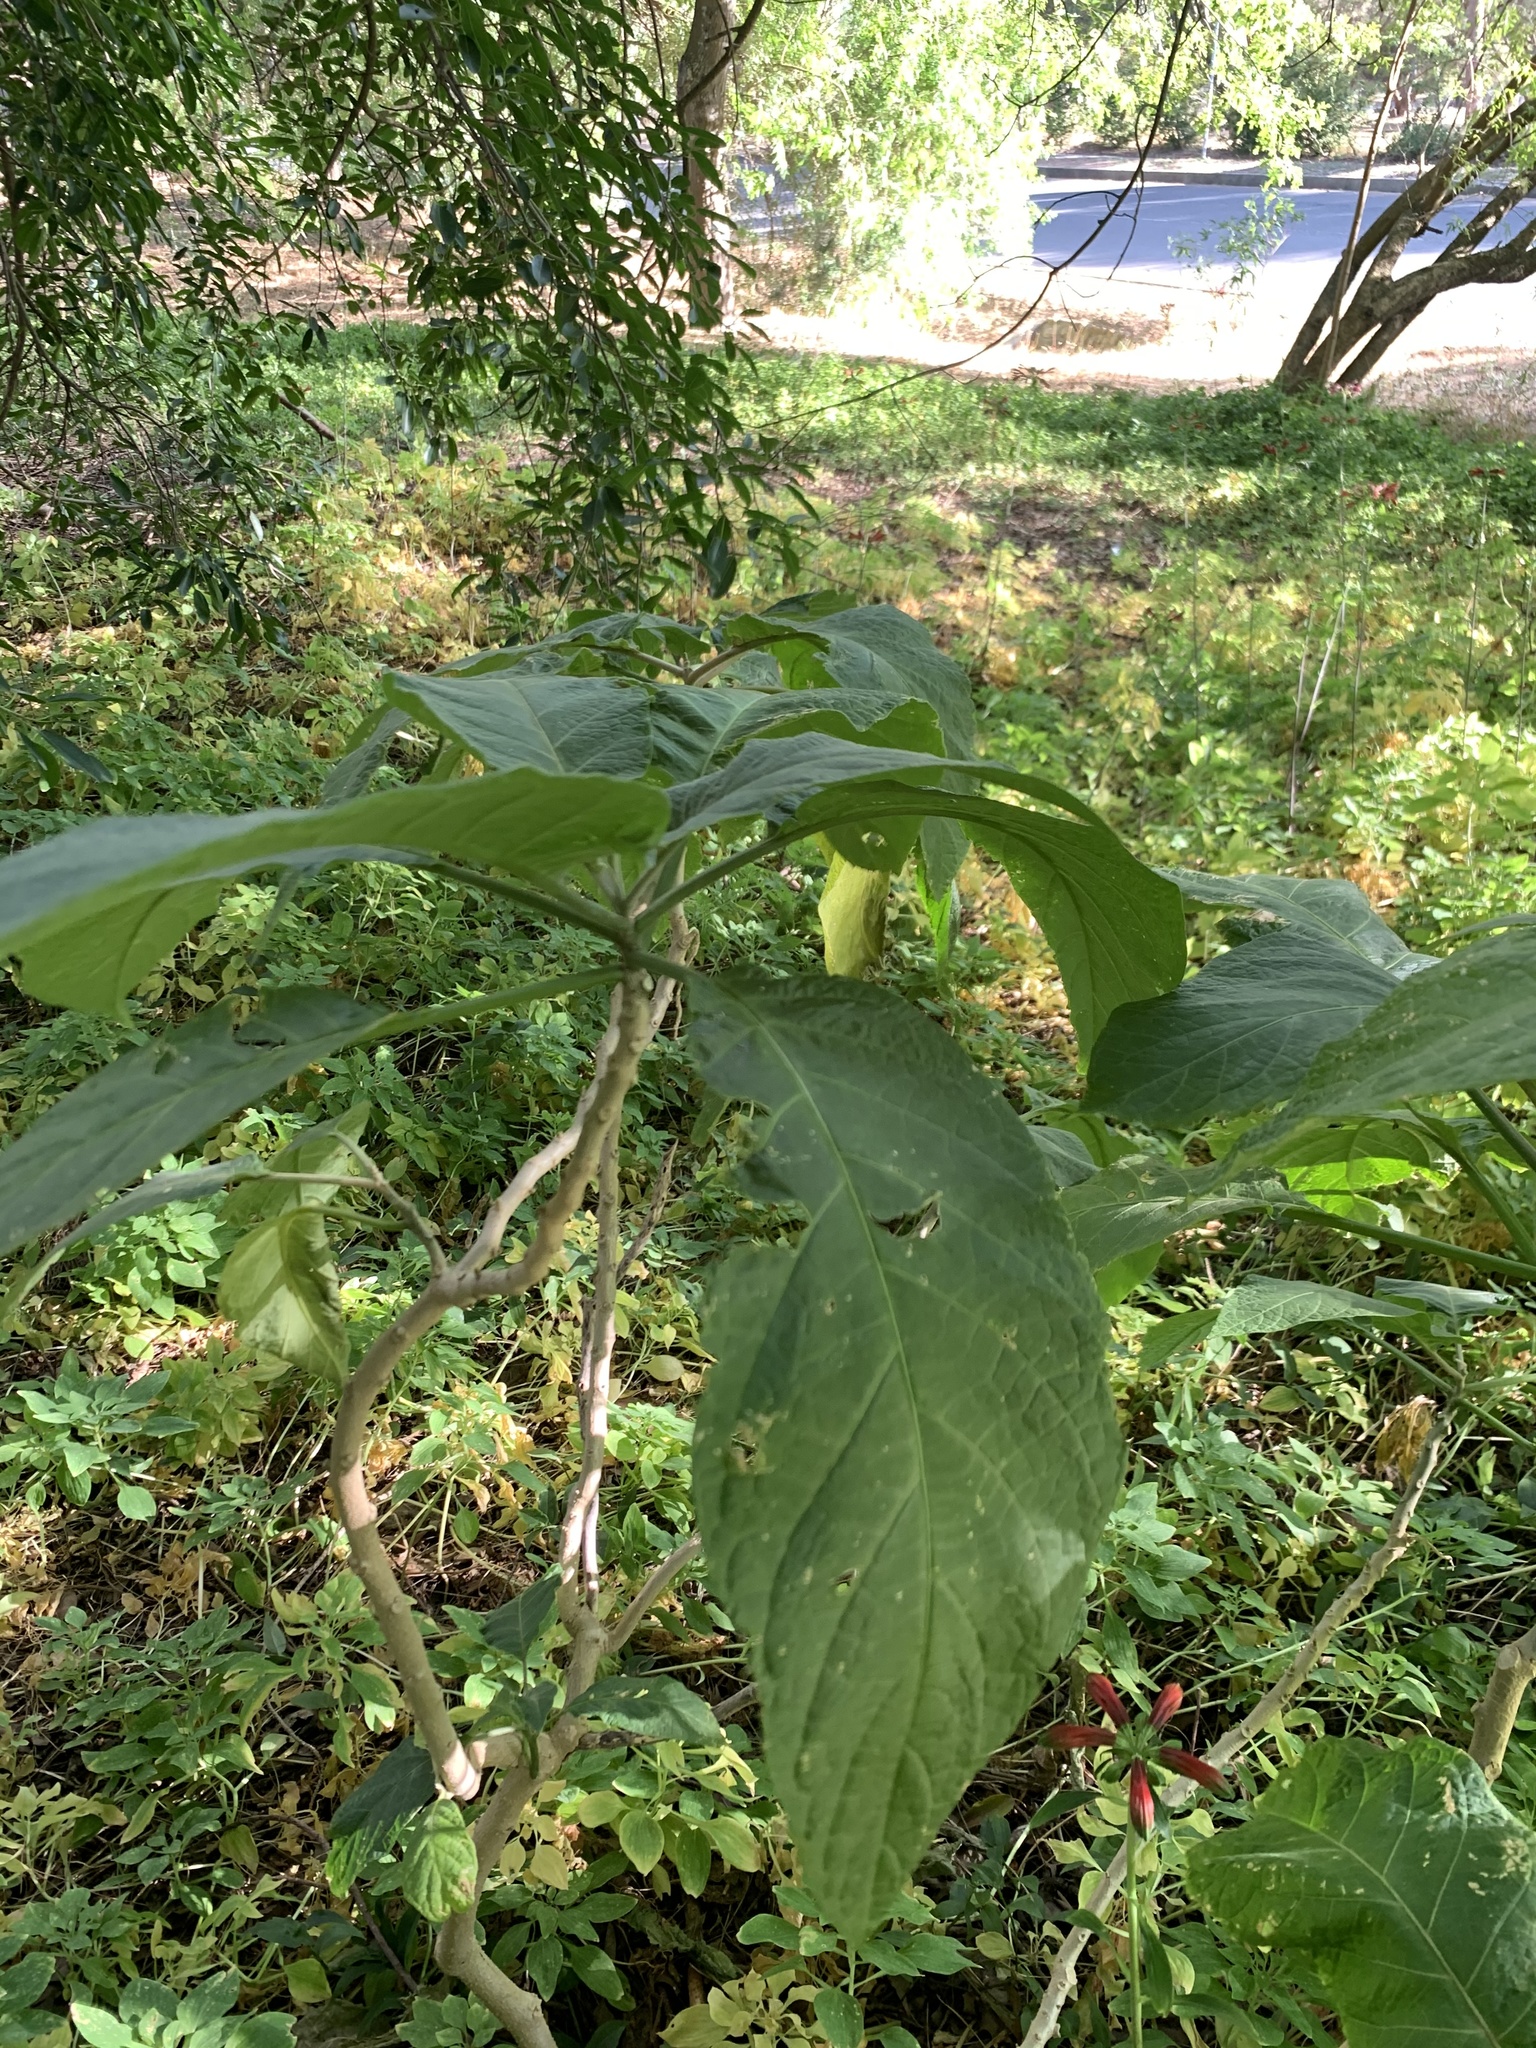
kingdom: Plantae
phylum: Tracheophyta
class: Magnoliopsida
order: Solanales
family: Solanaceae
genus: Solanum
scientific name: Solanum mauritianum
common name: Earleaf nightshade
